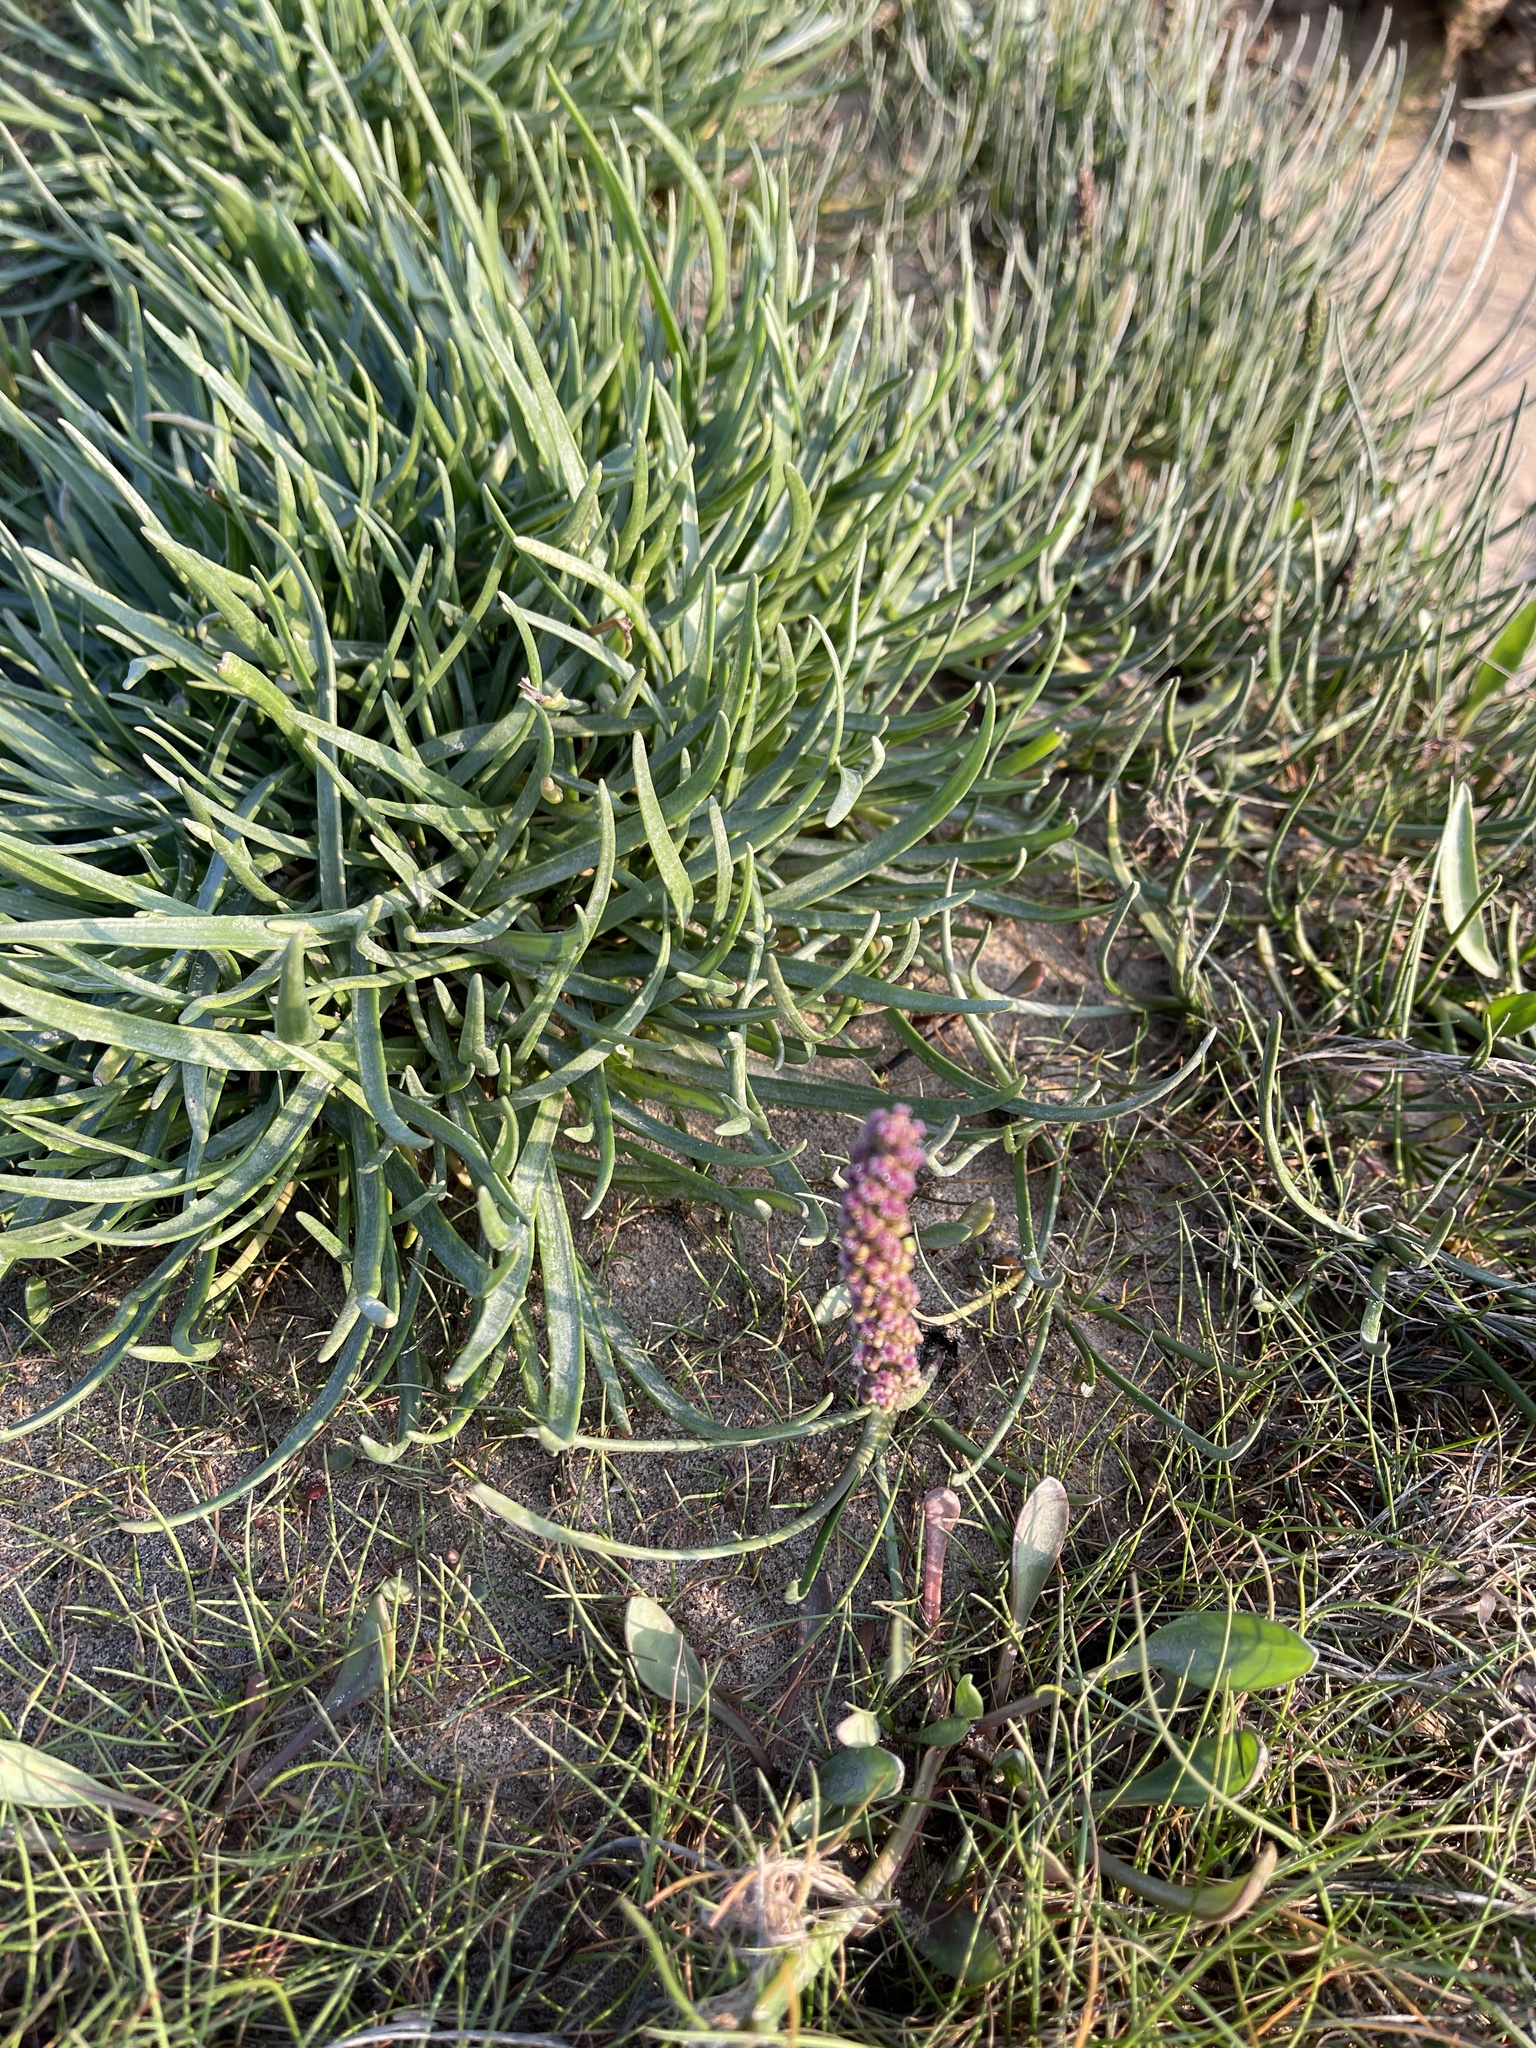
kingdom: Plantae
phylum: Tracheophyta
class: Liliopsida
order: Alismatales
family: Juncaginaceae
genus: Triglochin
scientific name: Triglochin maritima
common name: Sea arrowgrass
